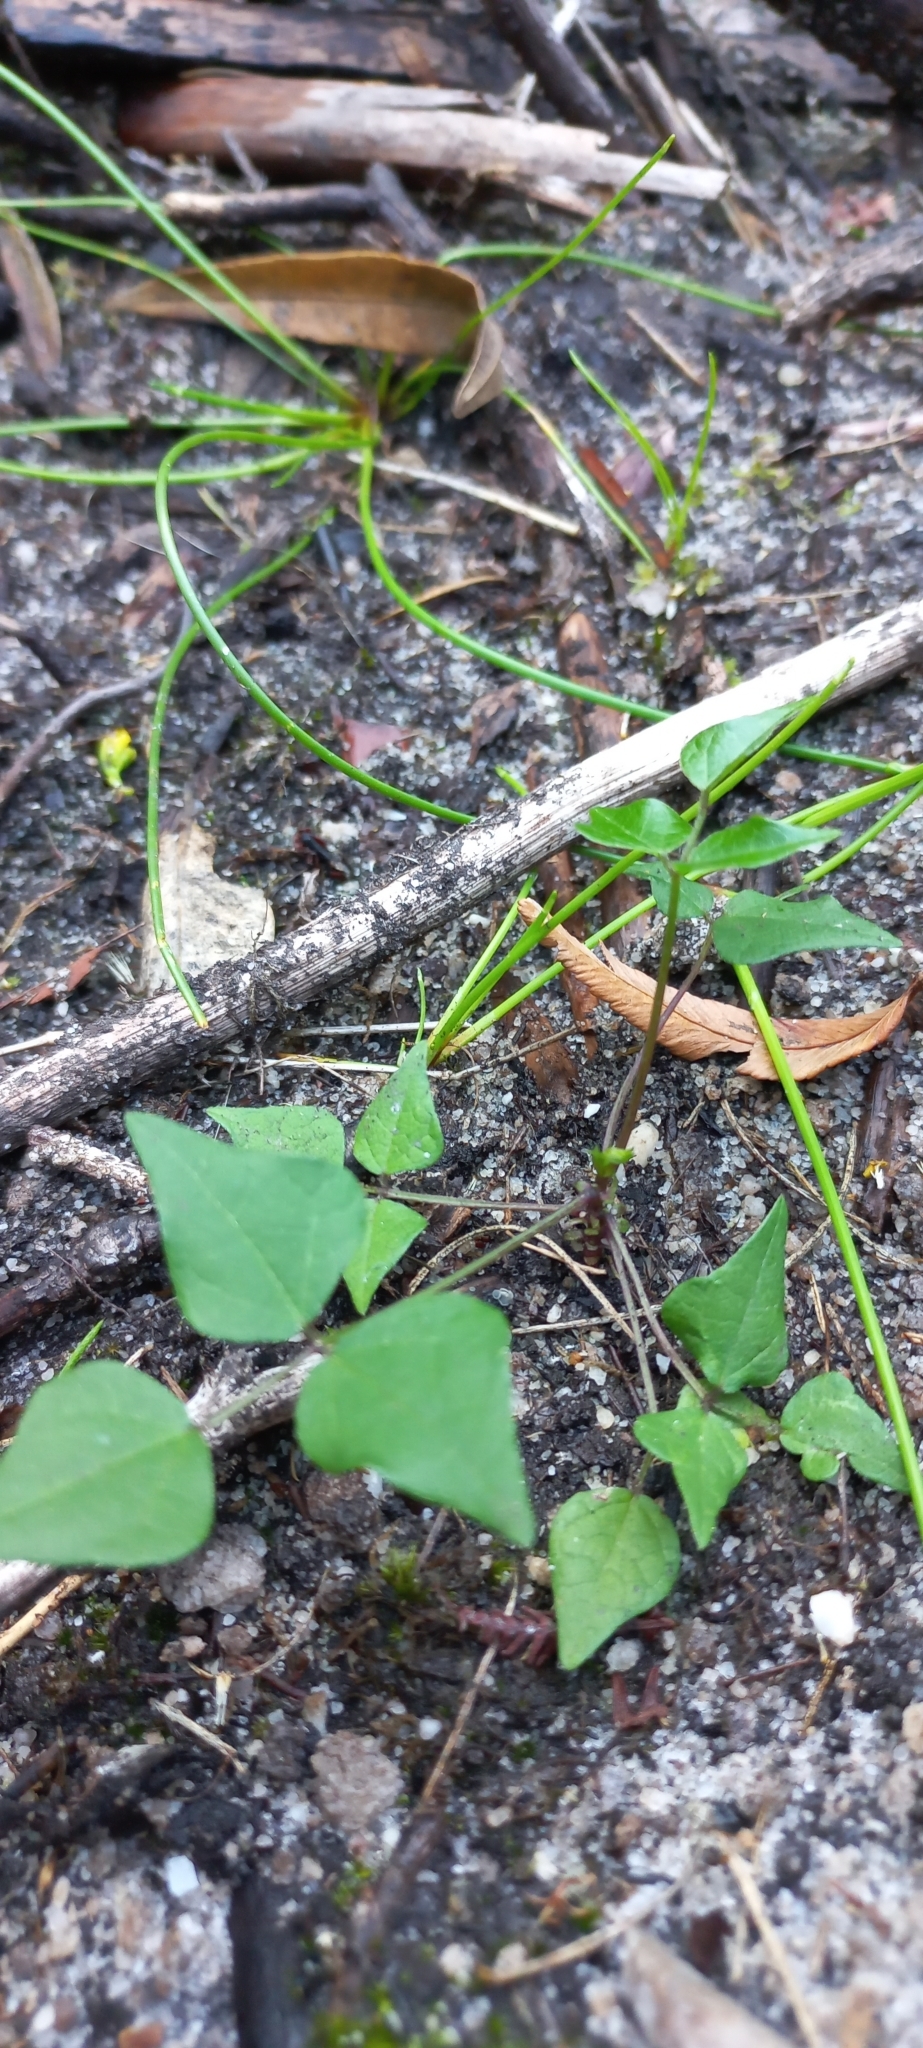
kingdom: Plantae
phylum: Tracheophyta
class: Magnoliopsida
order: Fabales
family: Fabaceae
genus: Dipogon
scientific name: Dipogon lignosus
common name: Okie bean
